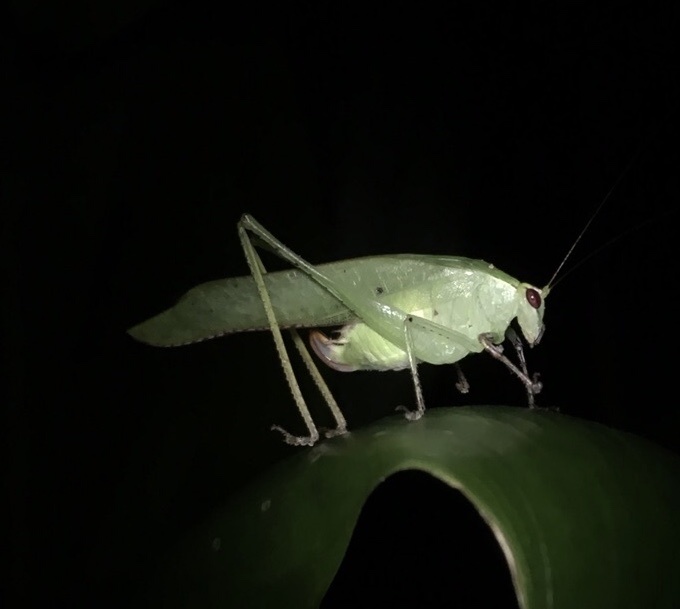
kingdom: Animalia
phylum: Arthropoda
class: Insecta
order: Orthoptera
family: Tettigoniidae
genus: Montezumina
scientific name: Montezumina bradleyi
